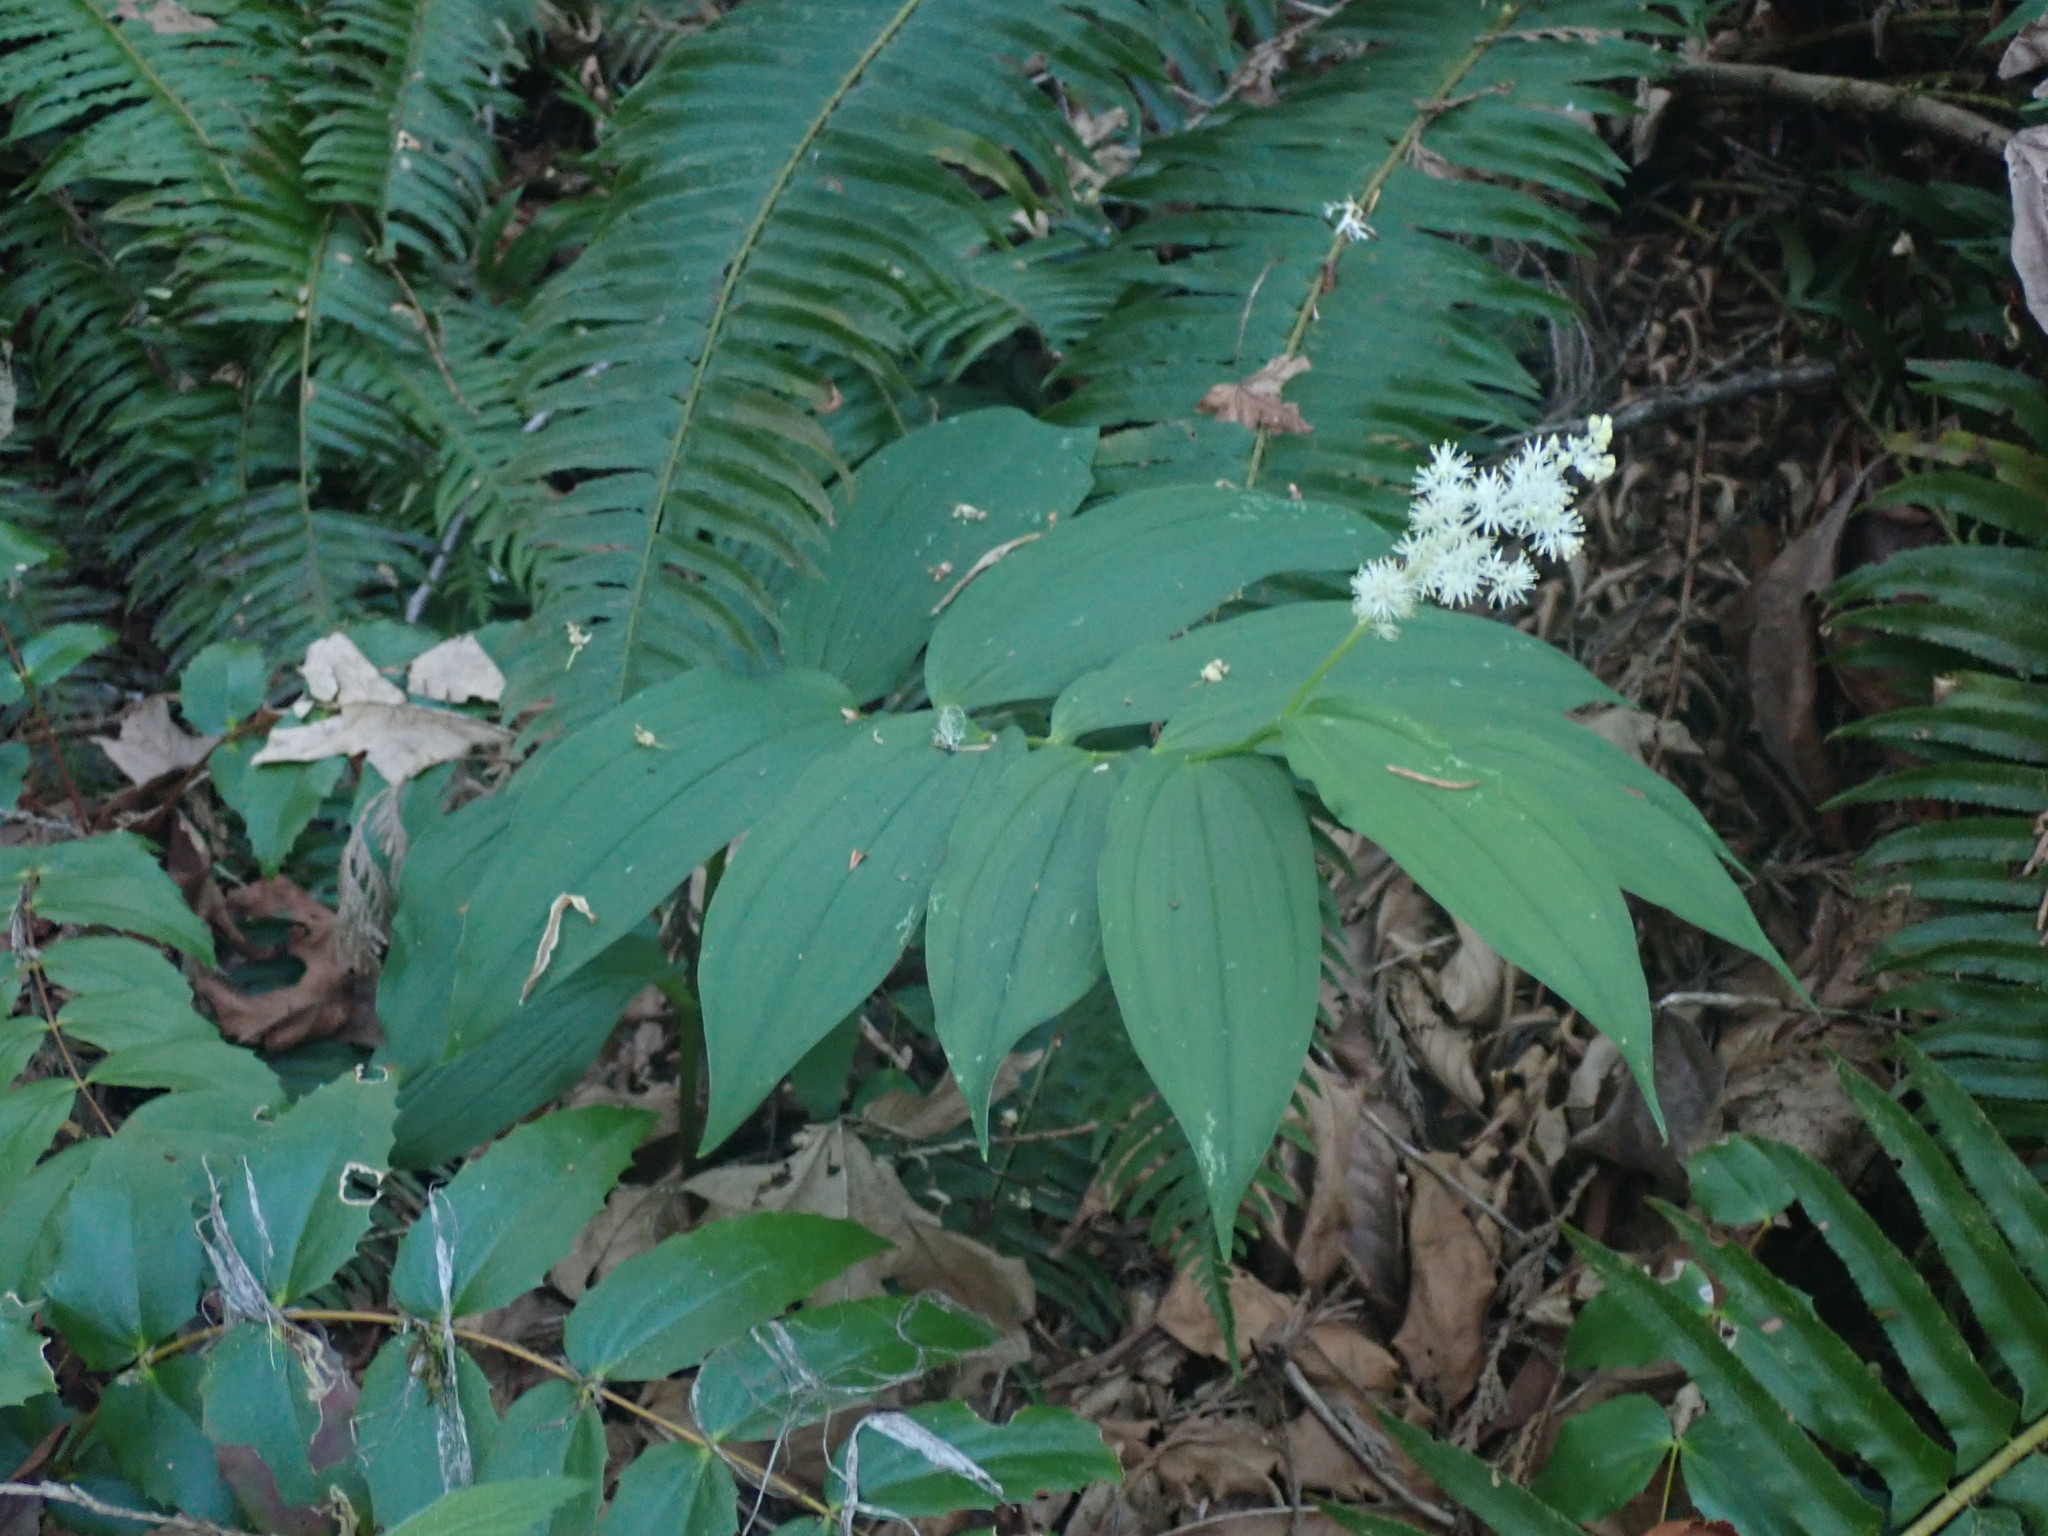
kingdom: Plantae
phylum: Tracheophyta
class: Liliopsida
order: Asparagales
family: Asparagaceae
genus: Maianthemum
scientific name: Maianthemum racemosum
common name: False spikenard
